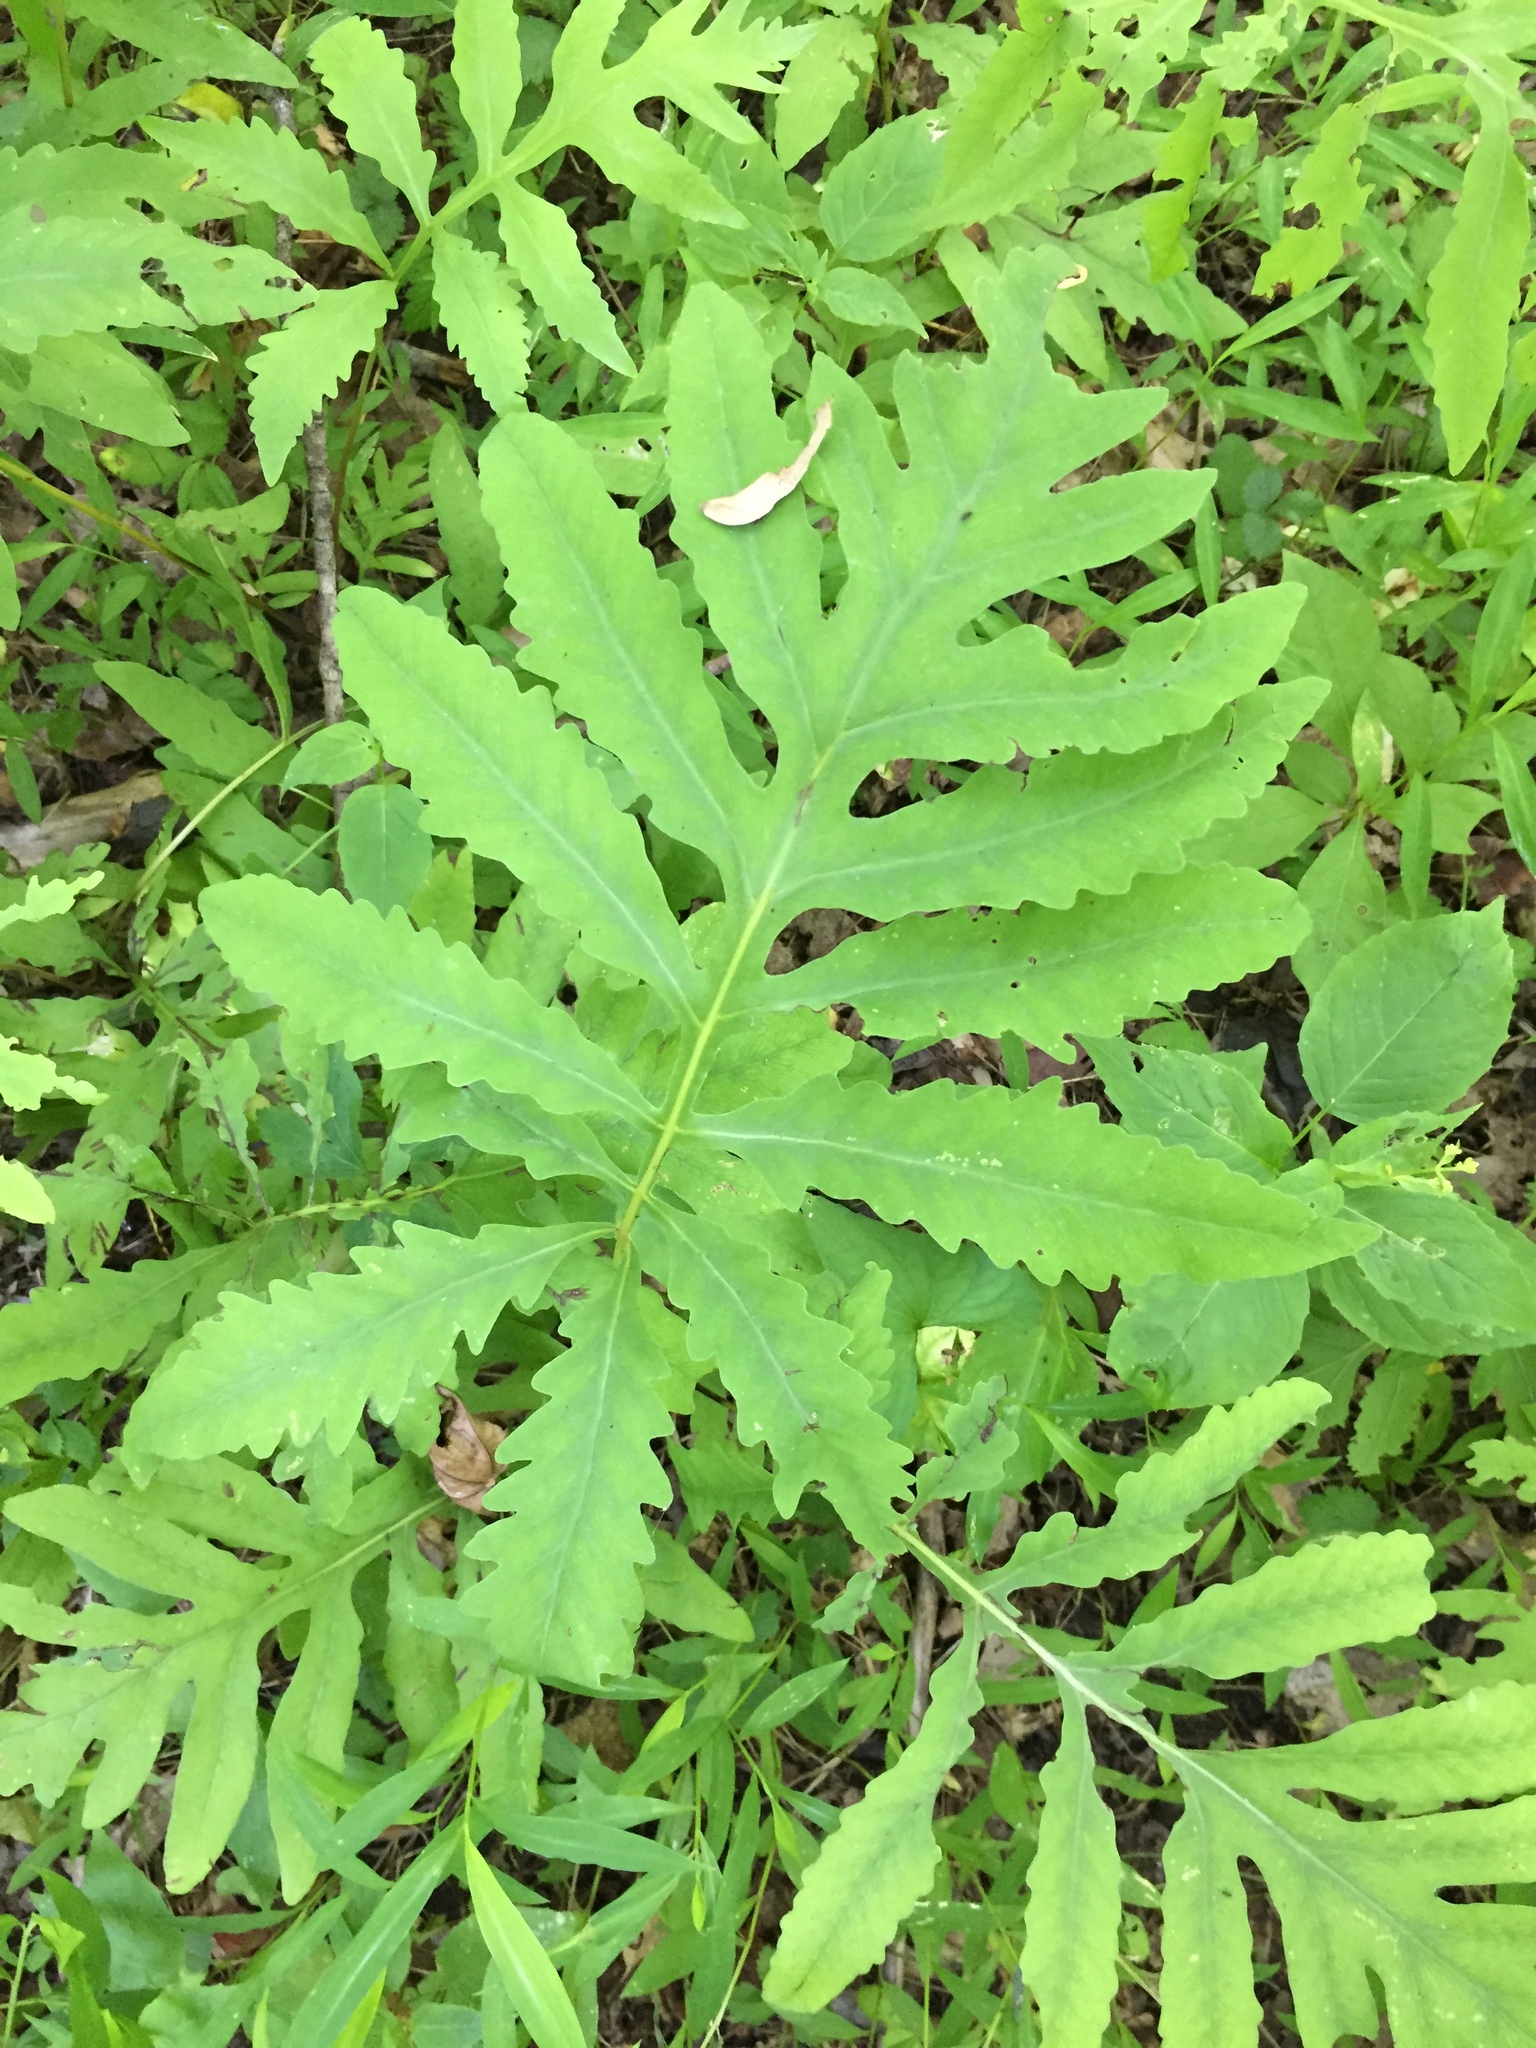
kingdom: Plantae
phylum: Tracheophyta
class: Polypodiopsida
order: Polypodiales
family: Onocleaceae
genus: Onoclea
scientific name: Onoclea sensibilis
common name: Sensitive fern
